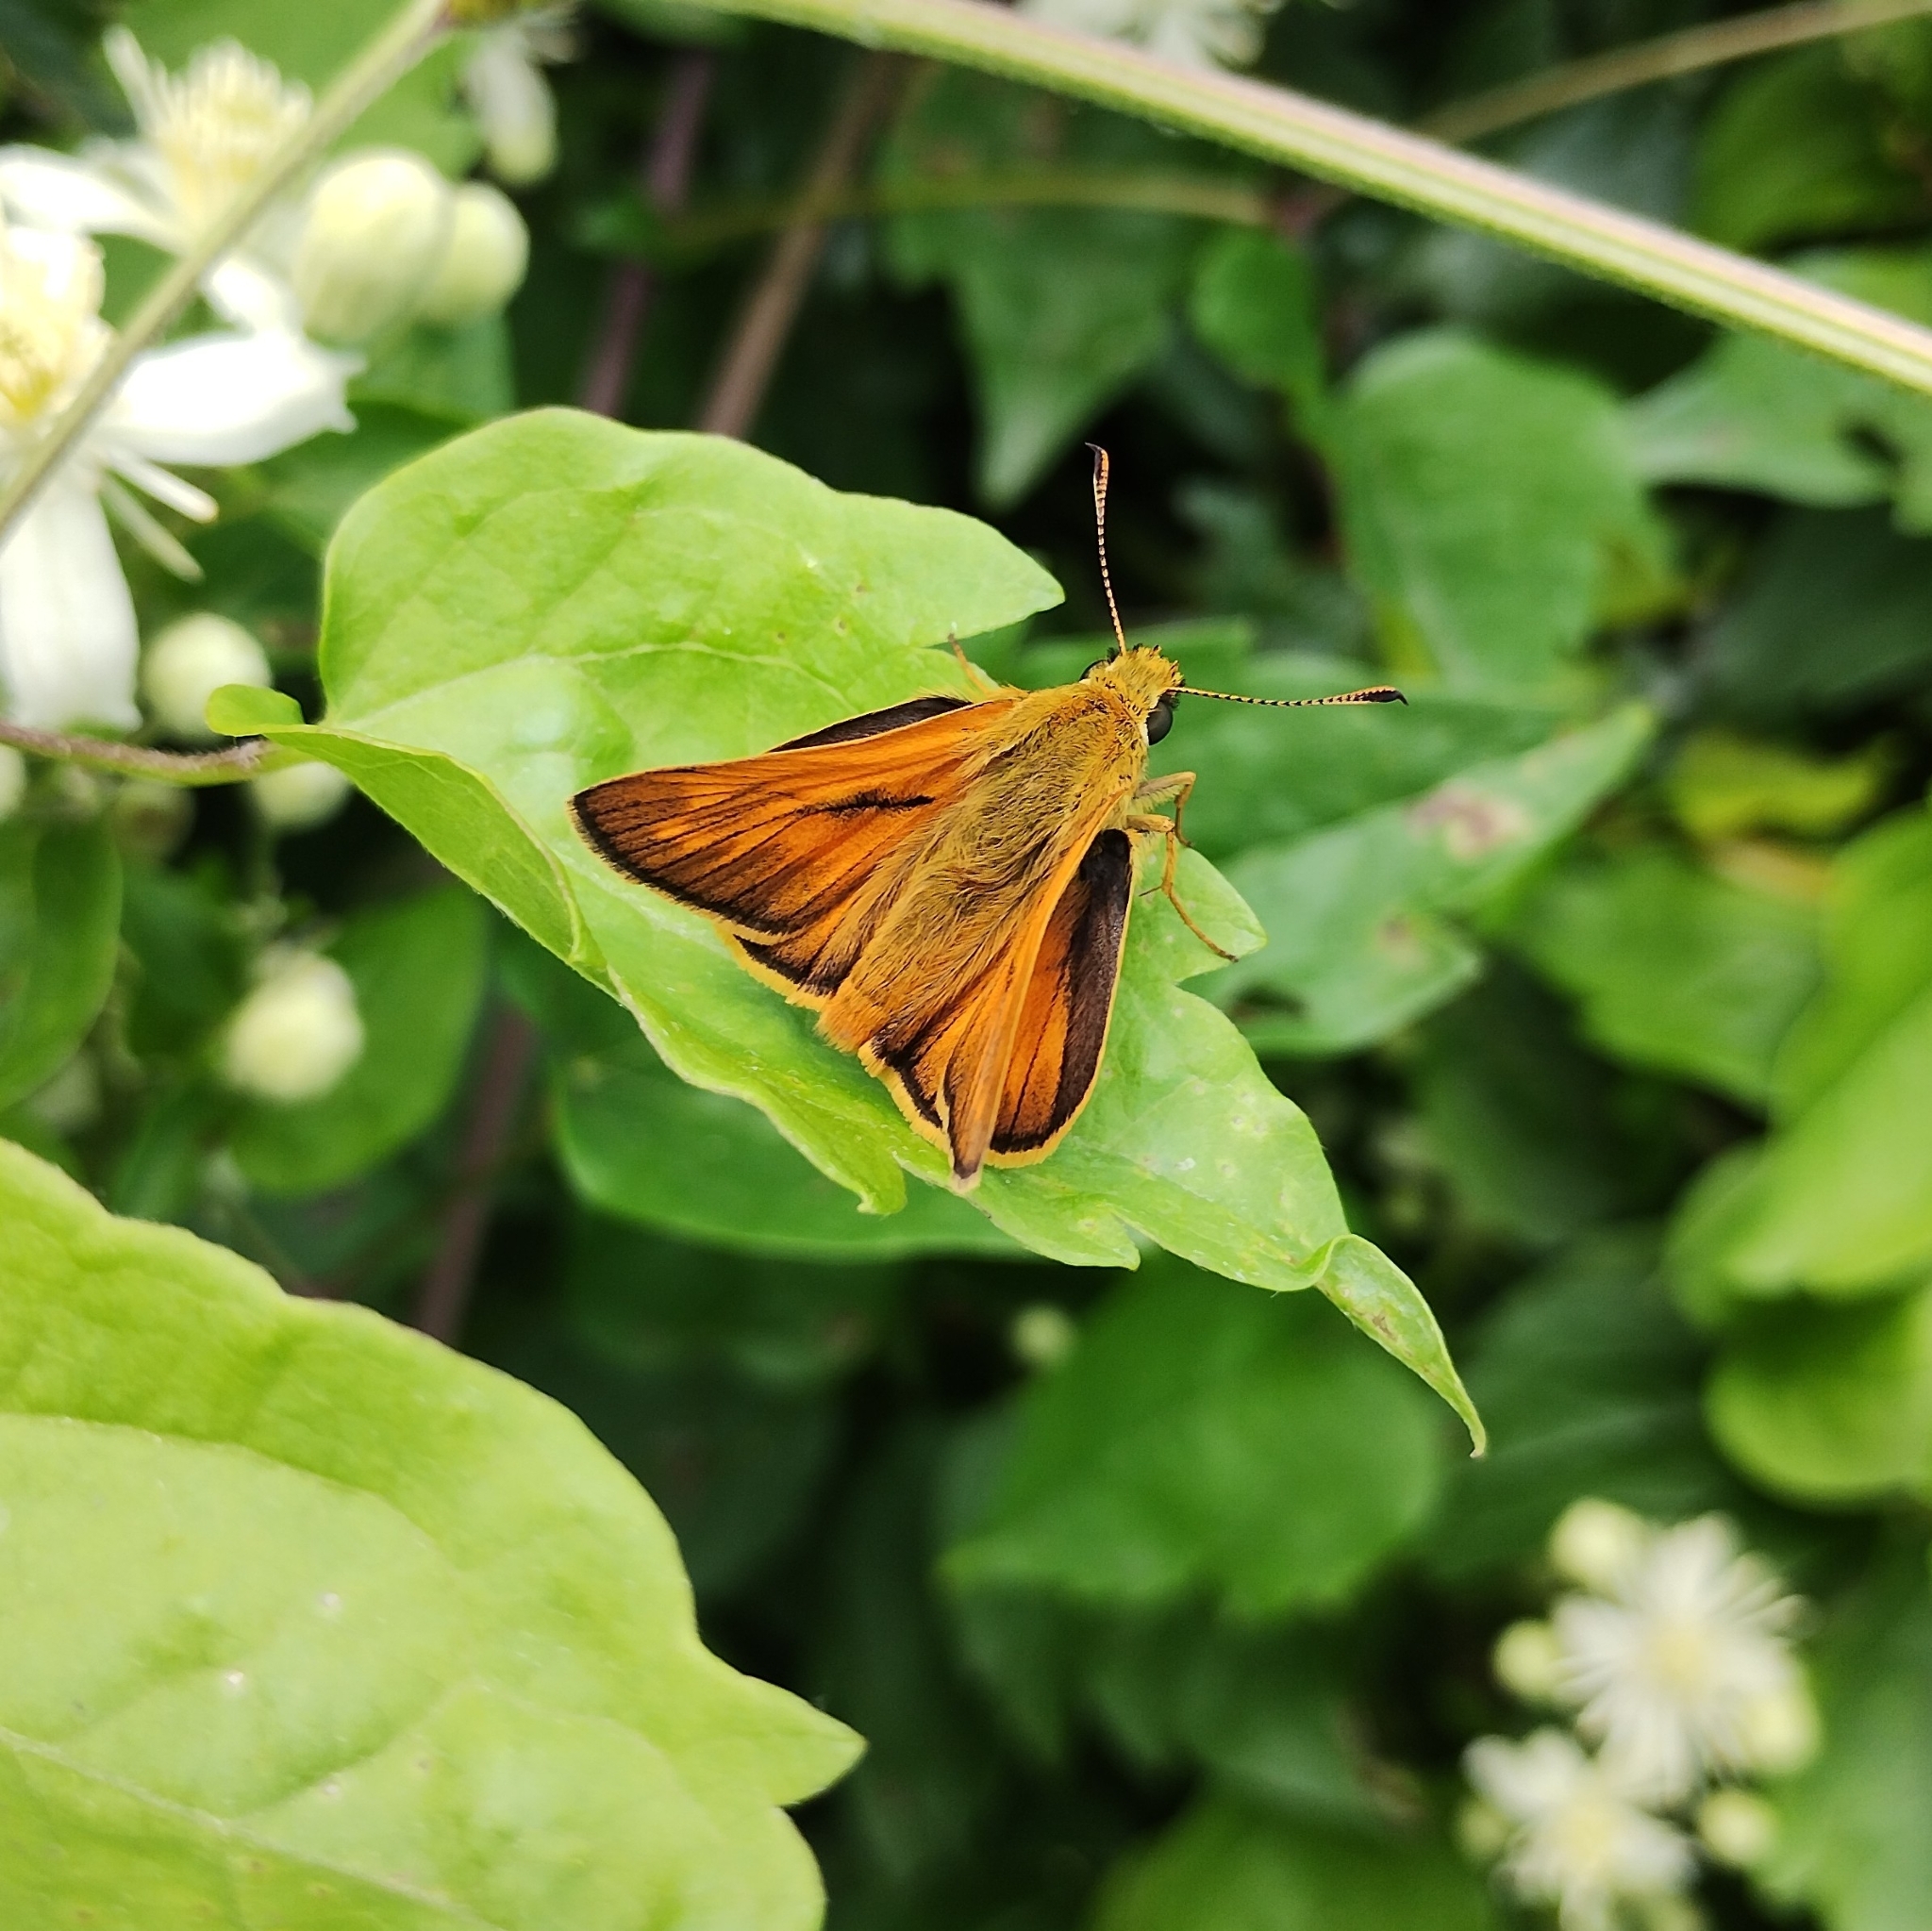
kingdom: Animalia
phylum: Arthropoda
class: Insecta
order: Lepidoptera
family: Hesperiidae
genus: Ochlodes
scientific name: Ochlodes venata
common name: Large skipper
